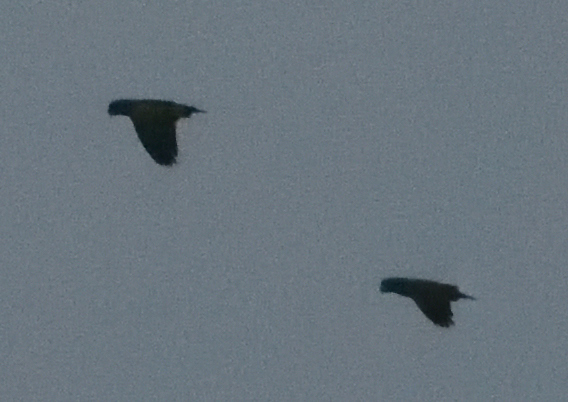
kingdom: Animalia
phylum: Chordata
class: Aves
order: Psittaciformes
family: Psittacidae
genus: Pionus
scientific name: Pionus menstruus
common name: Blue-headed parrot
